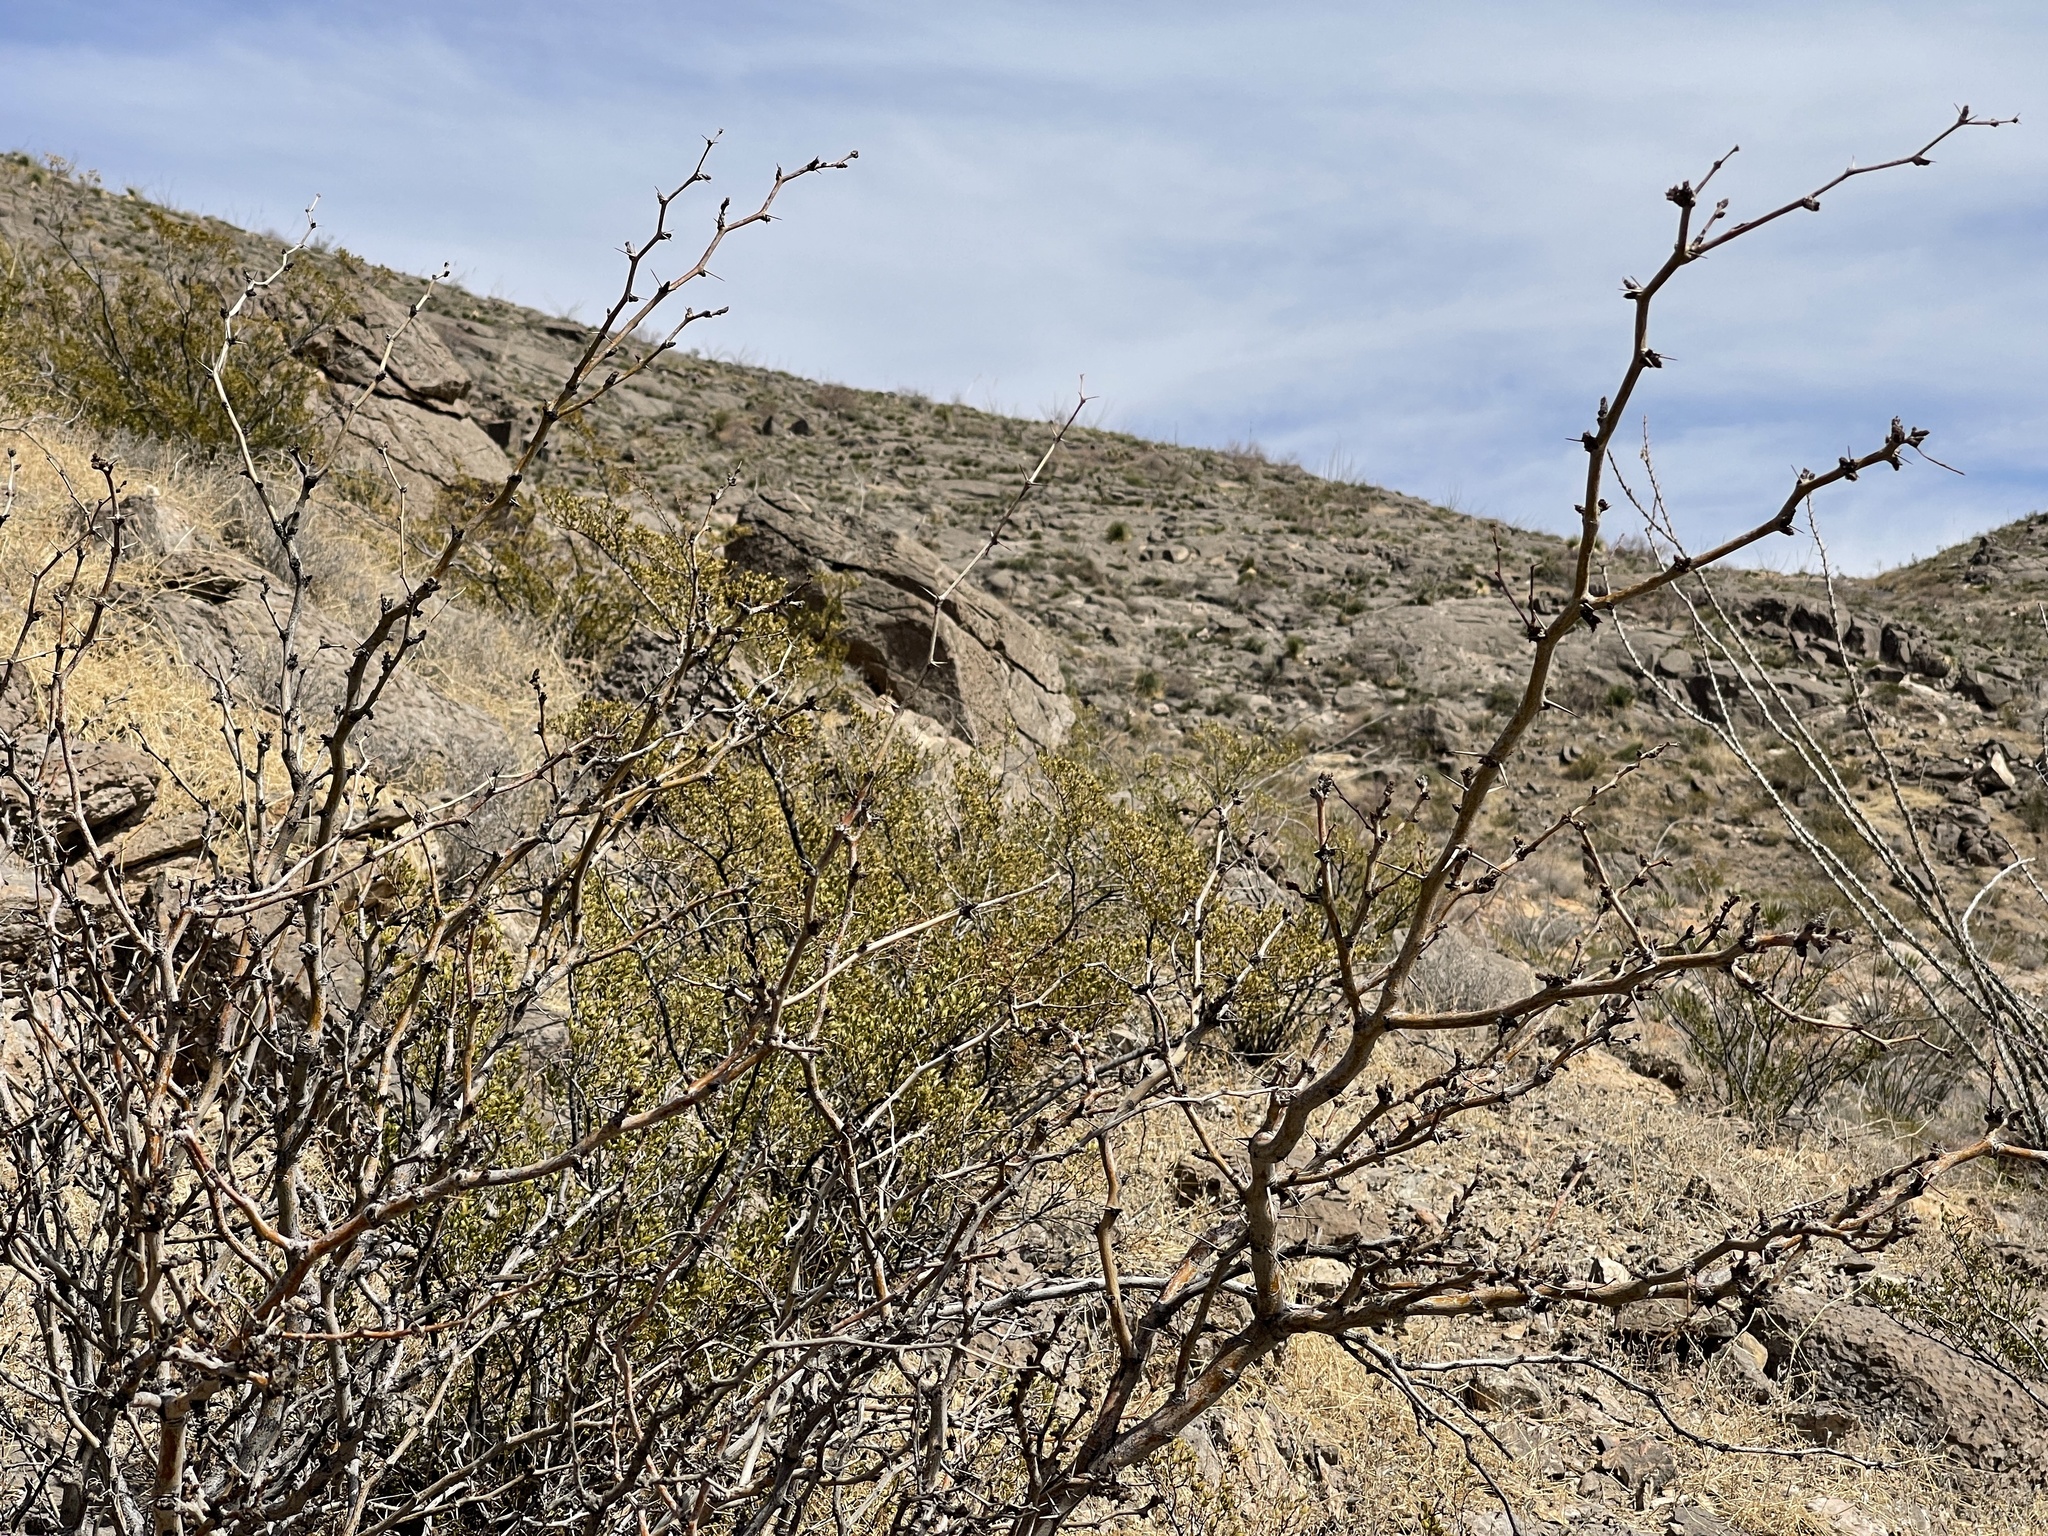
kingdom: Plantae
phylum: Tracheophyta
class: Magnoliopsida
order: Fabales
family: Fabaceae
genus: Prosopis
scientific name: Prosopis glandulosa
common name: Honey mesquite
